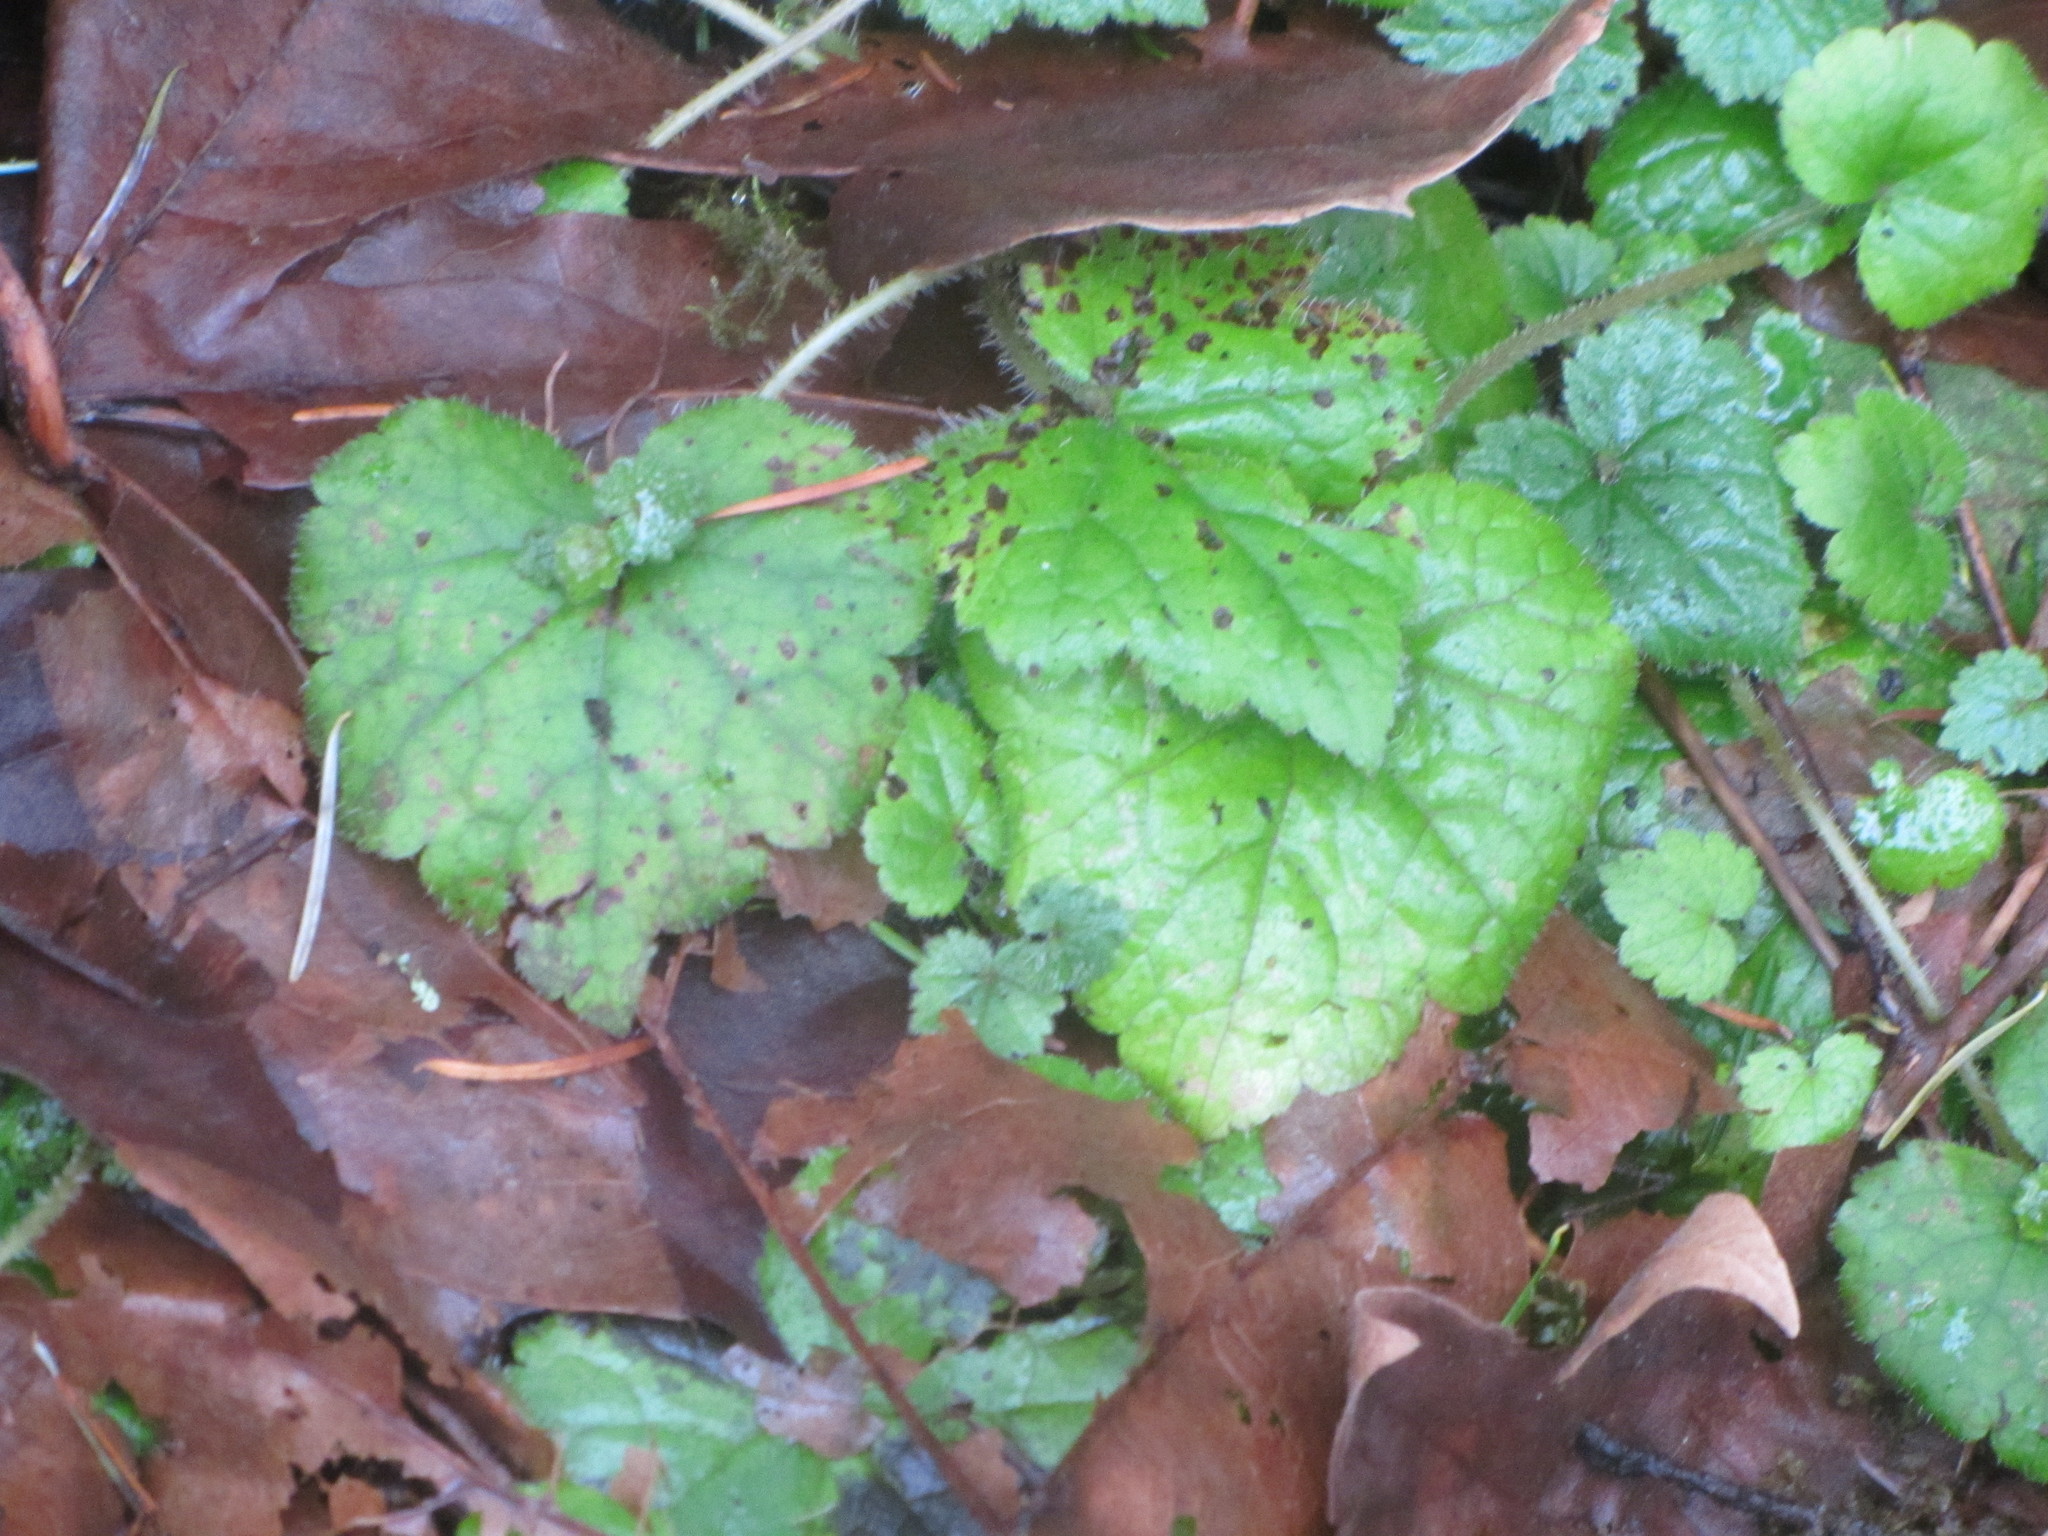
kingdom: Plantae
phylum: Tracheophyta
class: Magnoliopsida
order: Saxifragales
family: Saxifragaceae
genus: Tolmiea
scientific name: Tolmiea menziesii
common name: Pick-a-back-plant
